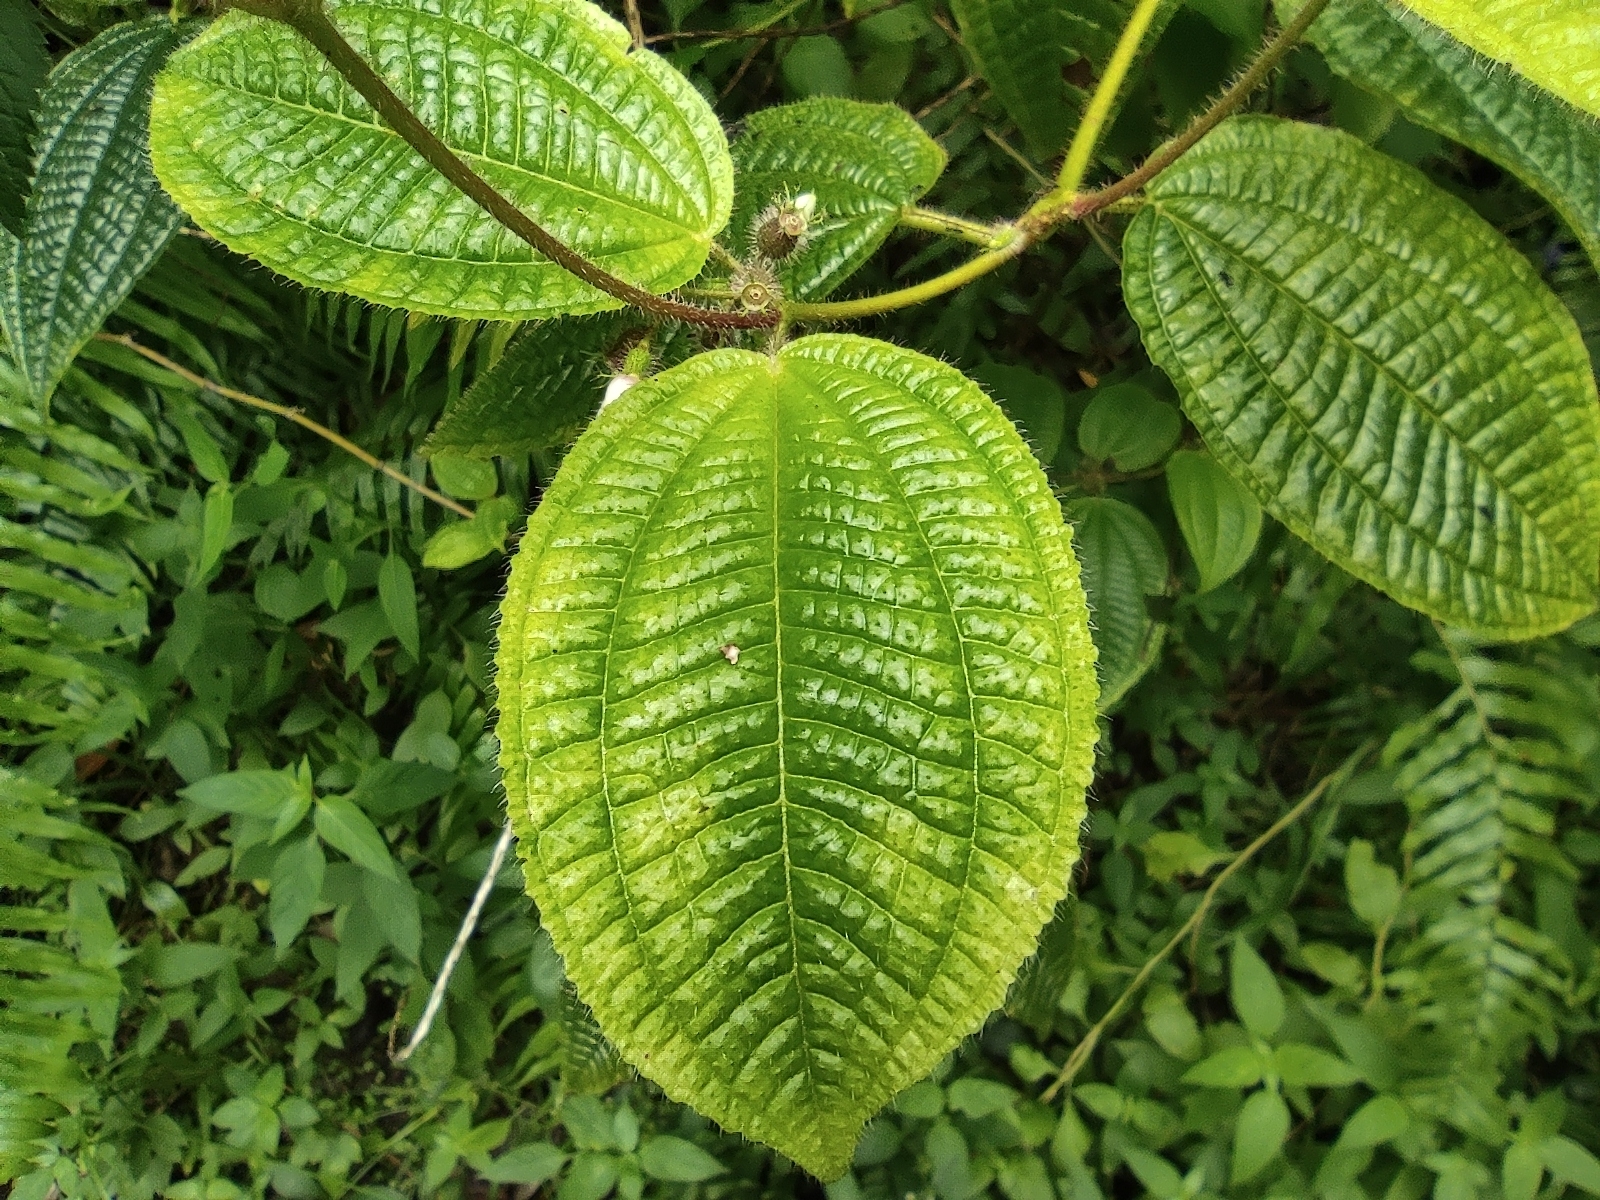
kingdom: Plantae
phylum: Tracheophyta
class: Magnoliopsida
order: Myrtales
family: Melastomataceae
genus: Miconia
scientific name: Miconia crenata
